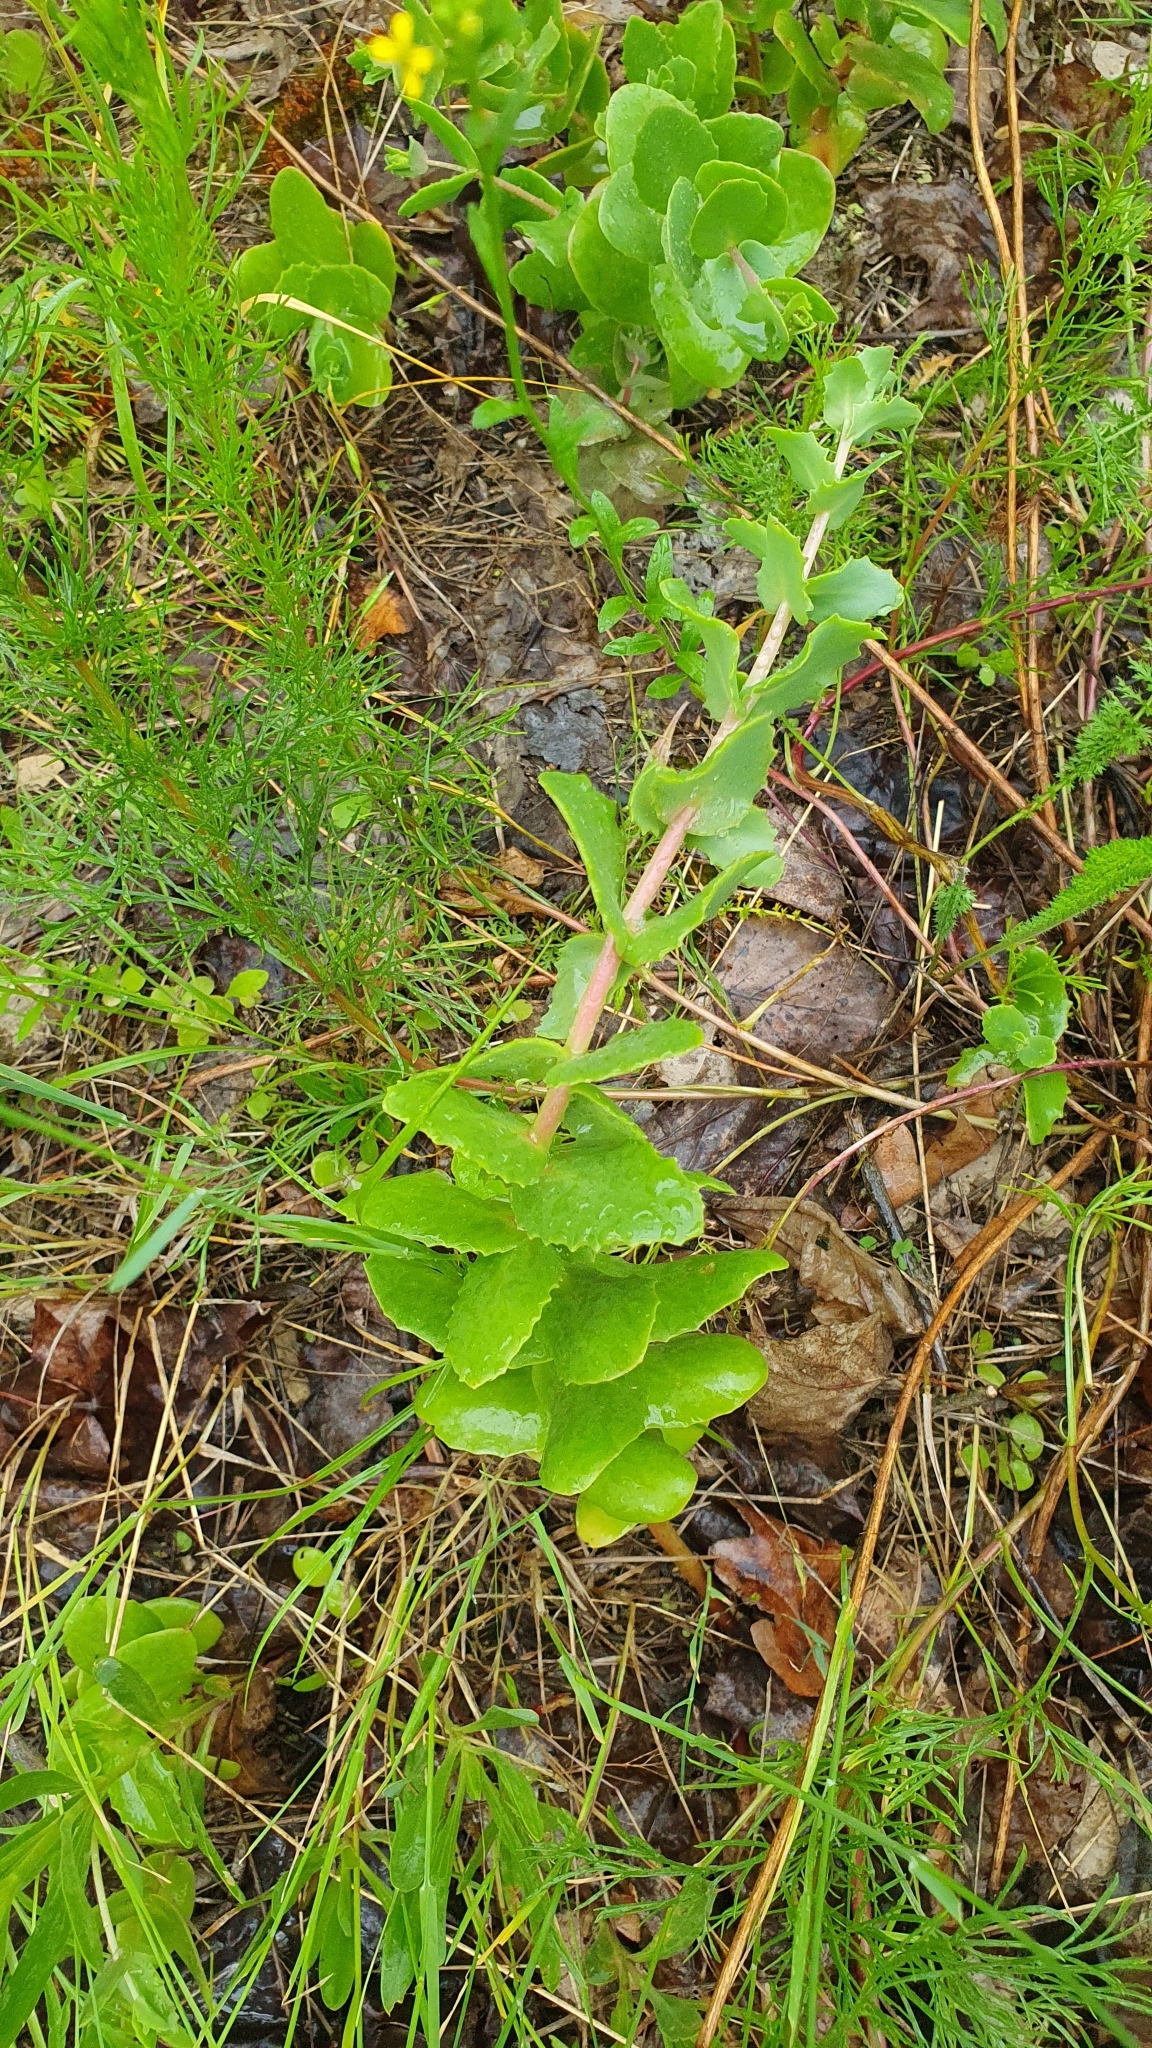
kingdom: Plantae
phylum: Tracheophyta
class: Magnoliopsida
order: Saxifragales
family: Crassulaceae
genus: Hylotelephium
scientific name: Hylotelephium maximum
